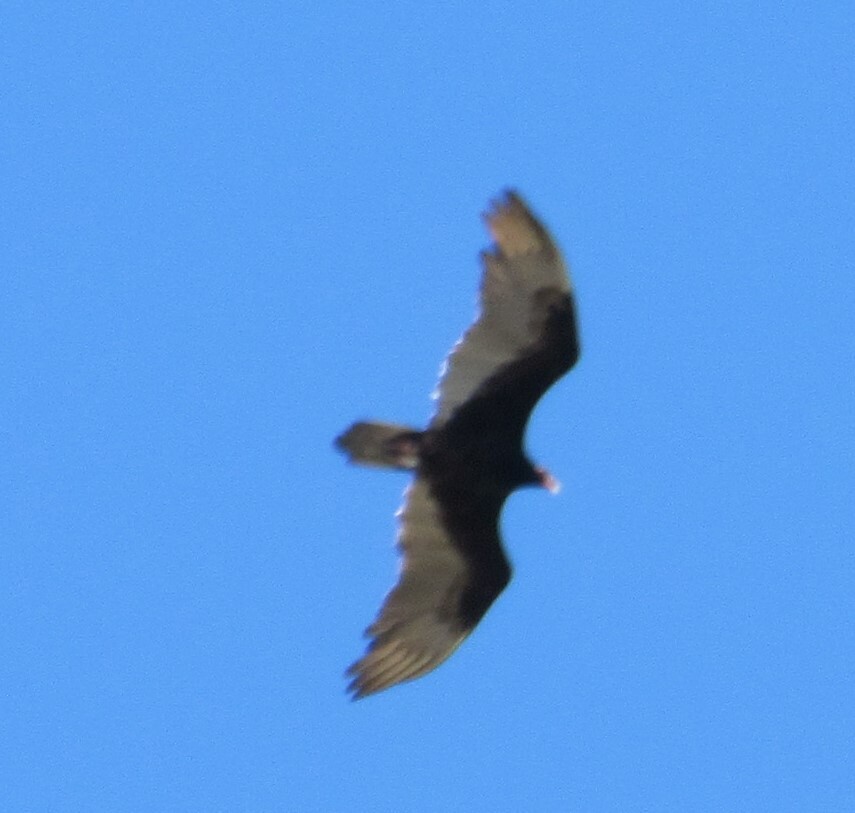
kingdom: Animalia
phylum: Chordata
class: Aves
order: Accipitriformes
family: Cathartidae
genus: Cathartes
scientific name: Cathartes aura
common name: Turkey vulture
